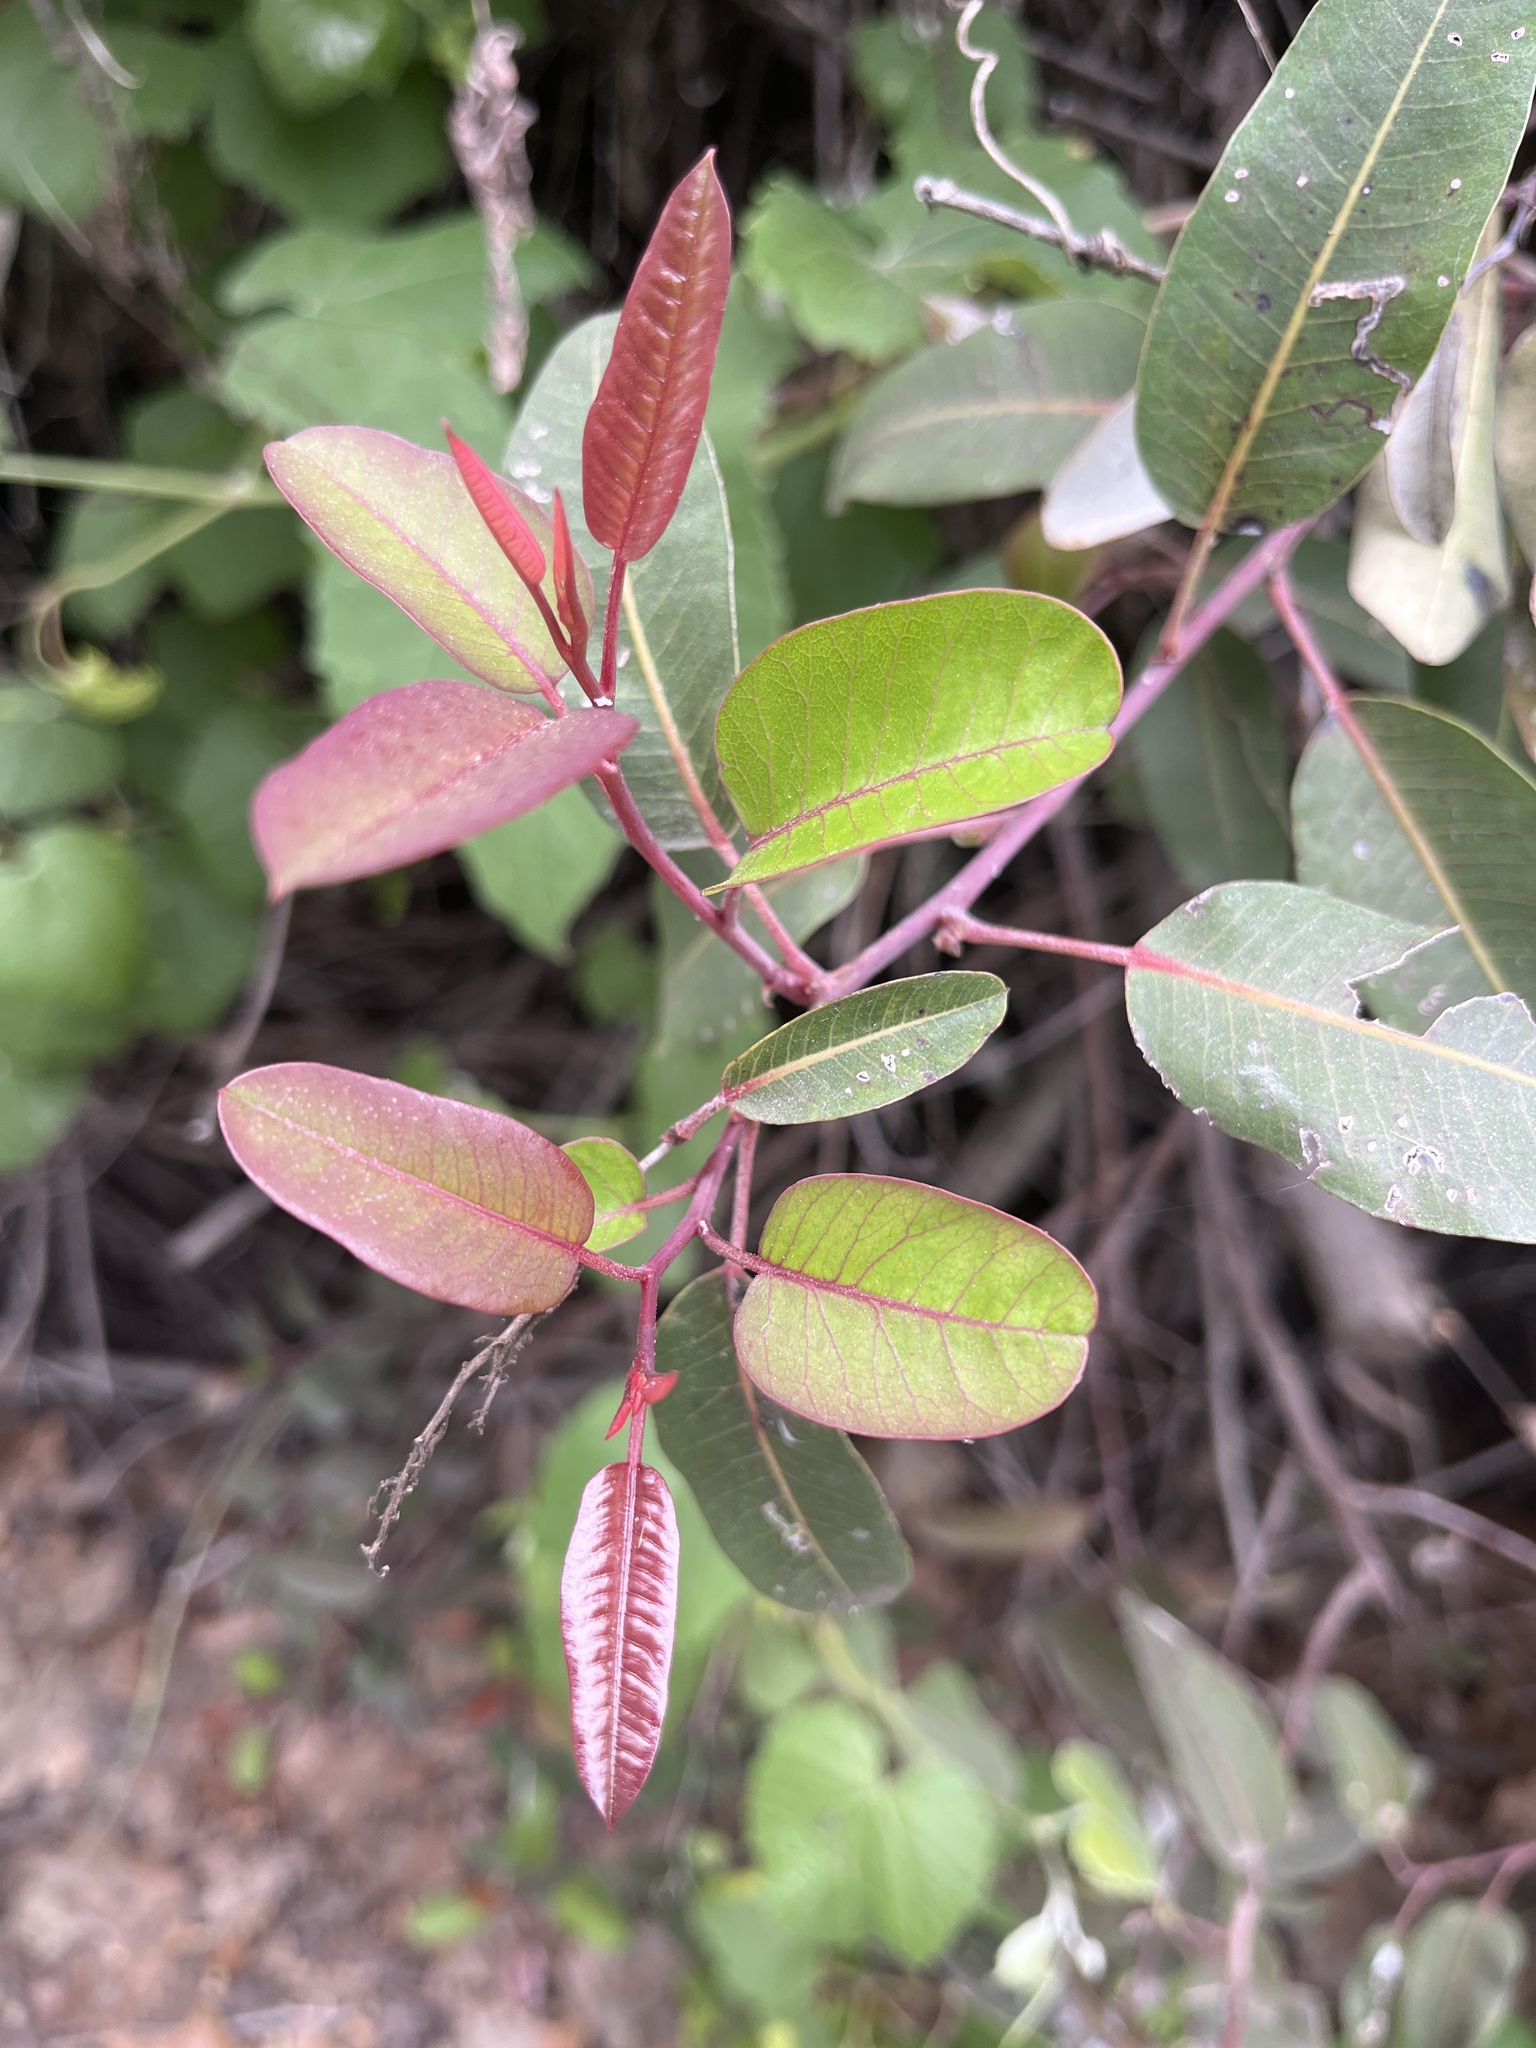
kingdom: Plantae
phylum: Tracheophyta
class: Magnoliopsida
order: Sapindales
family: Anacardiaceae
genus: Malosma
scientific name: Malosma laurina
